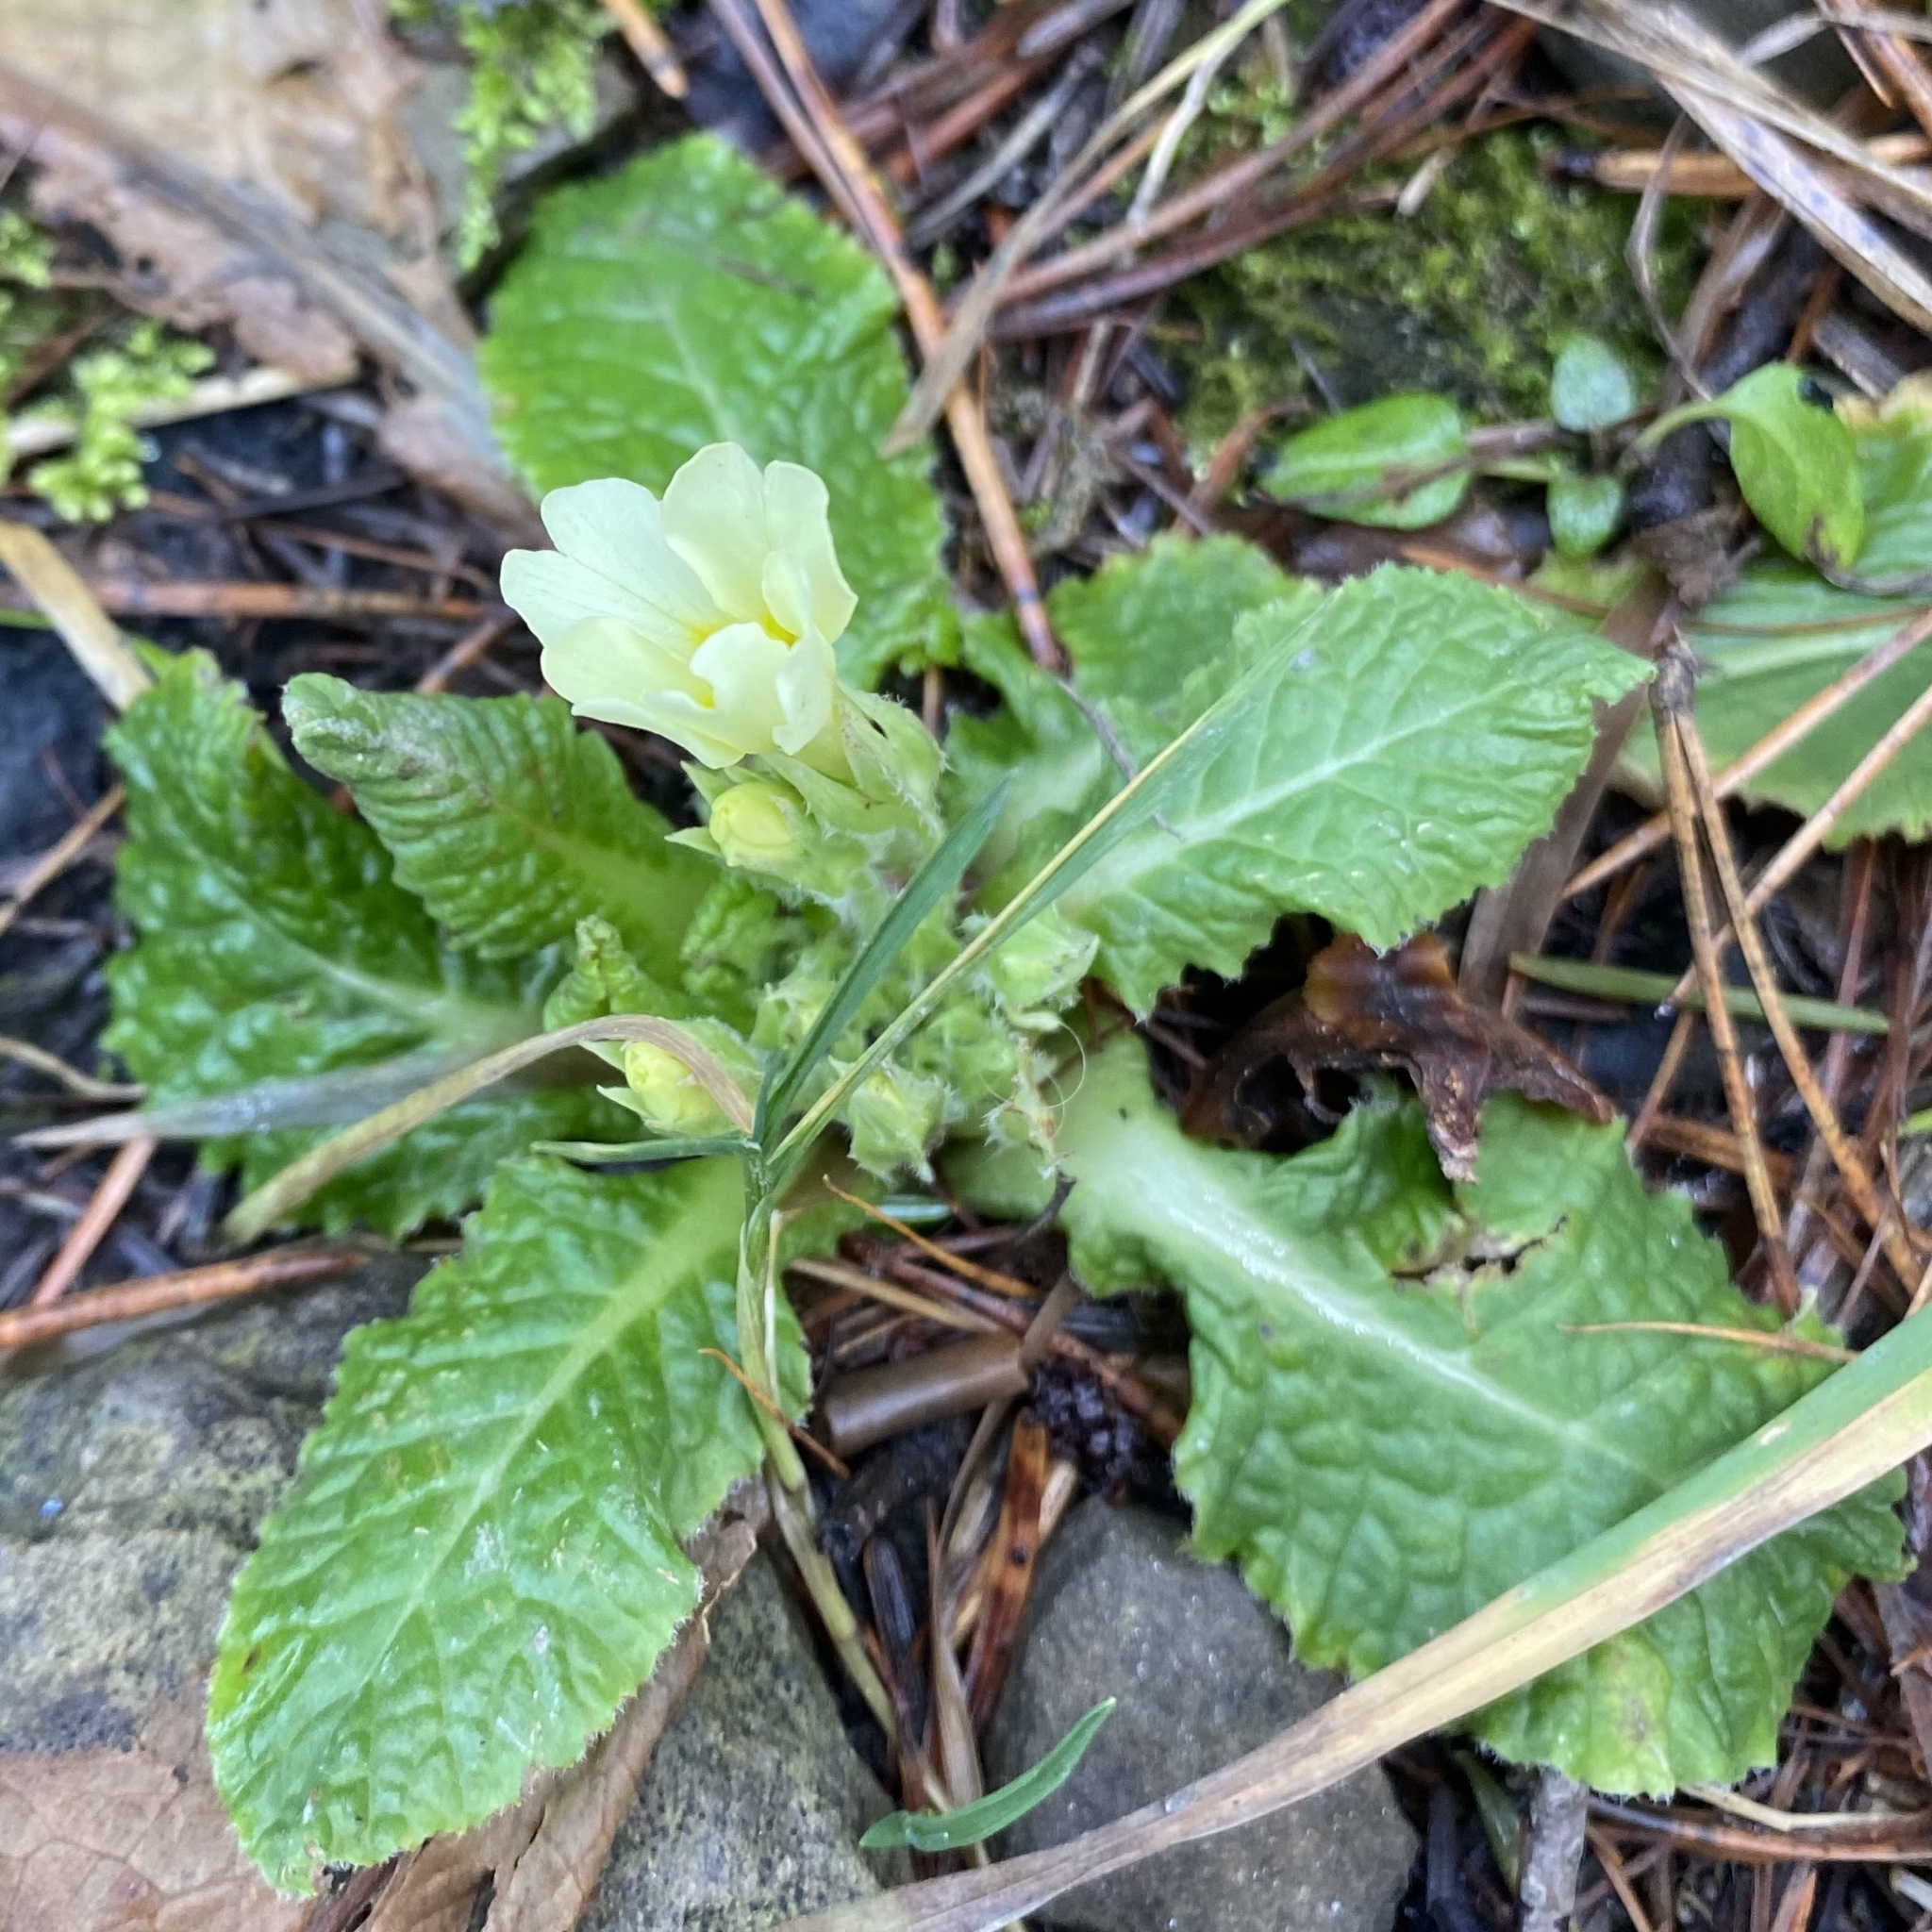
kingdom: Plantae
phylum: Tracheophyta
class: Magnoliopsida
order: Ericales
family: Primulaceae
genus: Primula
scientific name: Primula vulgaris
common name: Primrose
